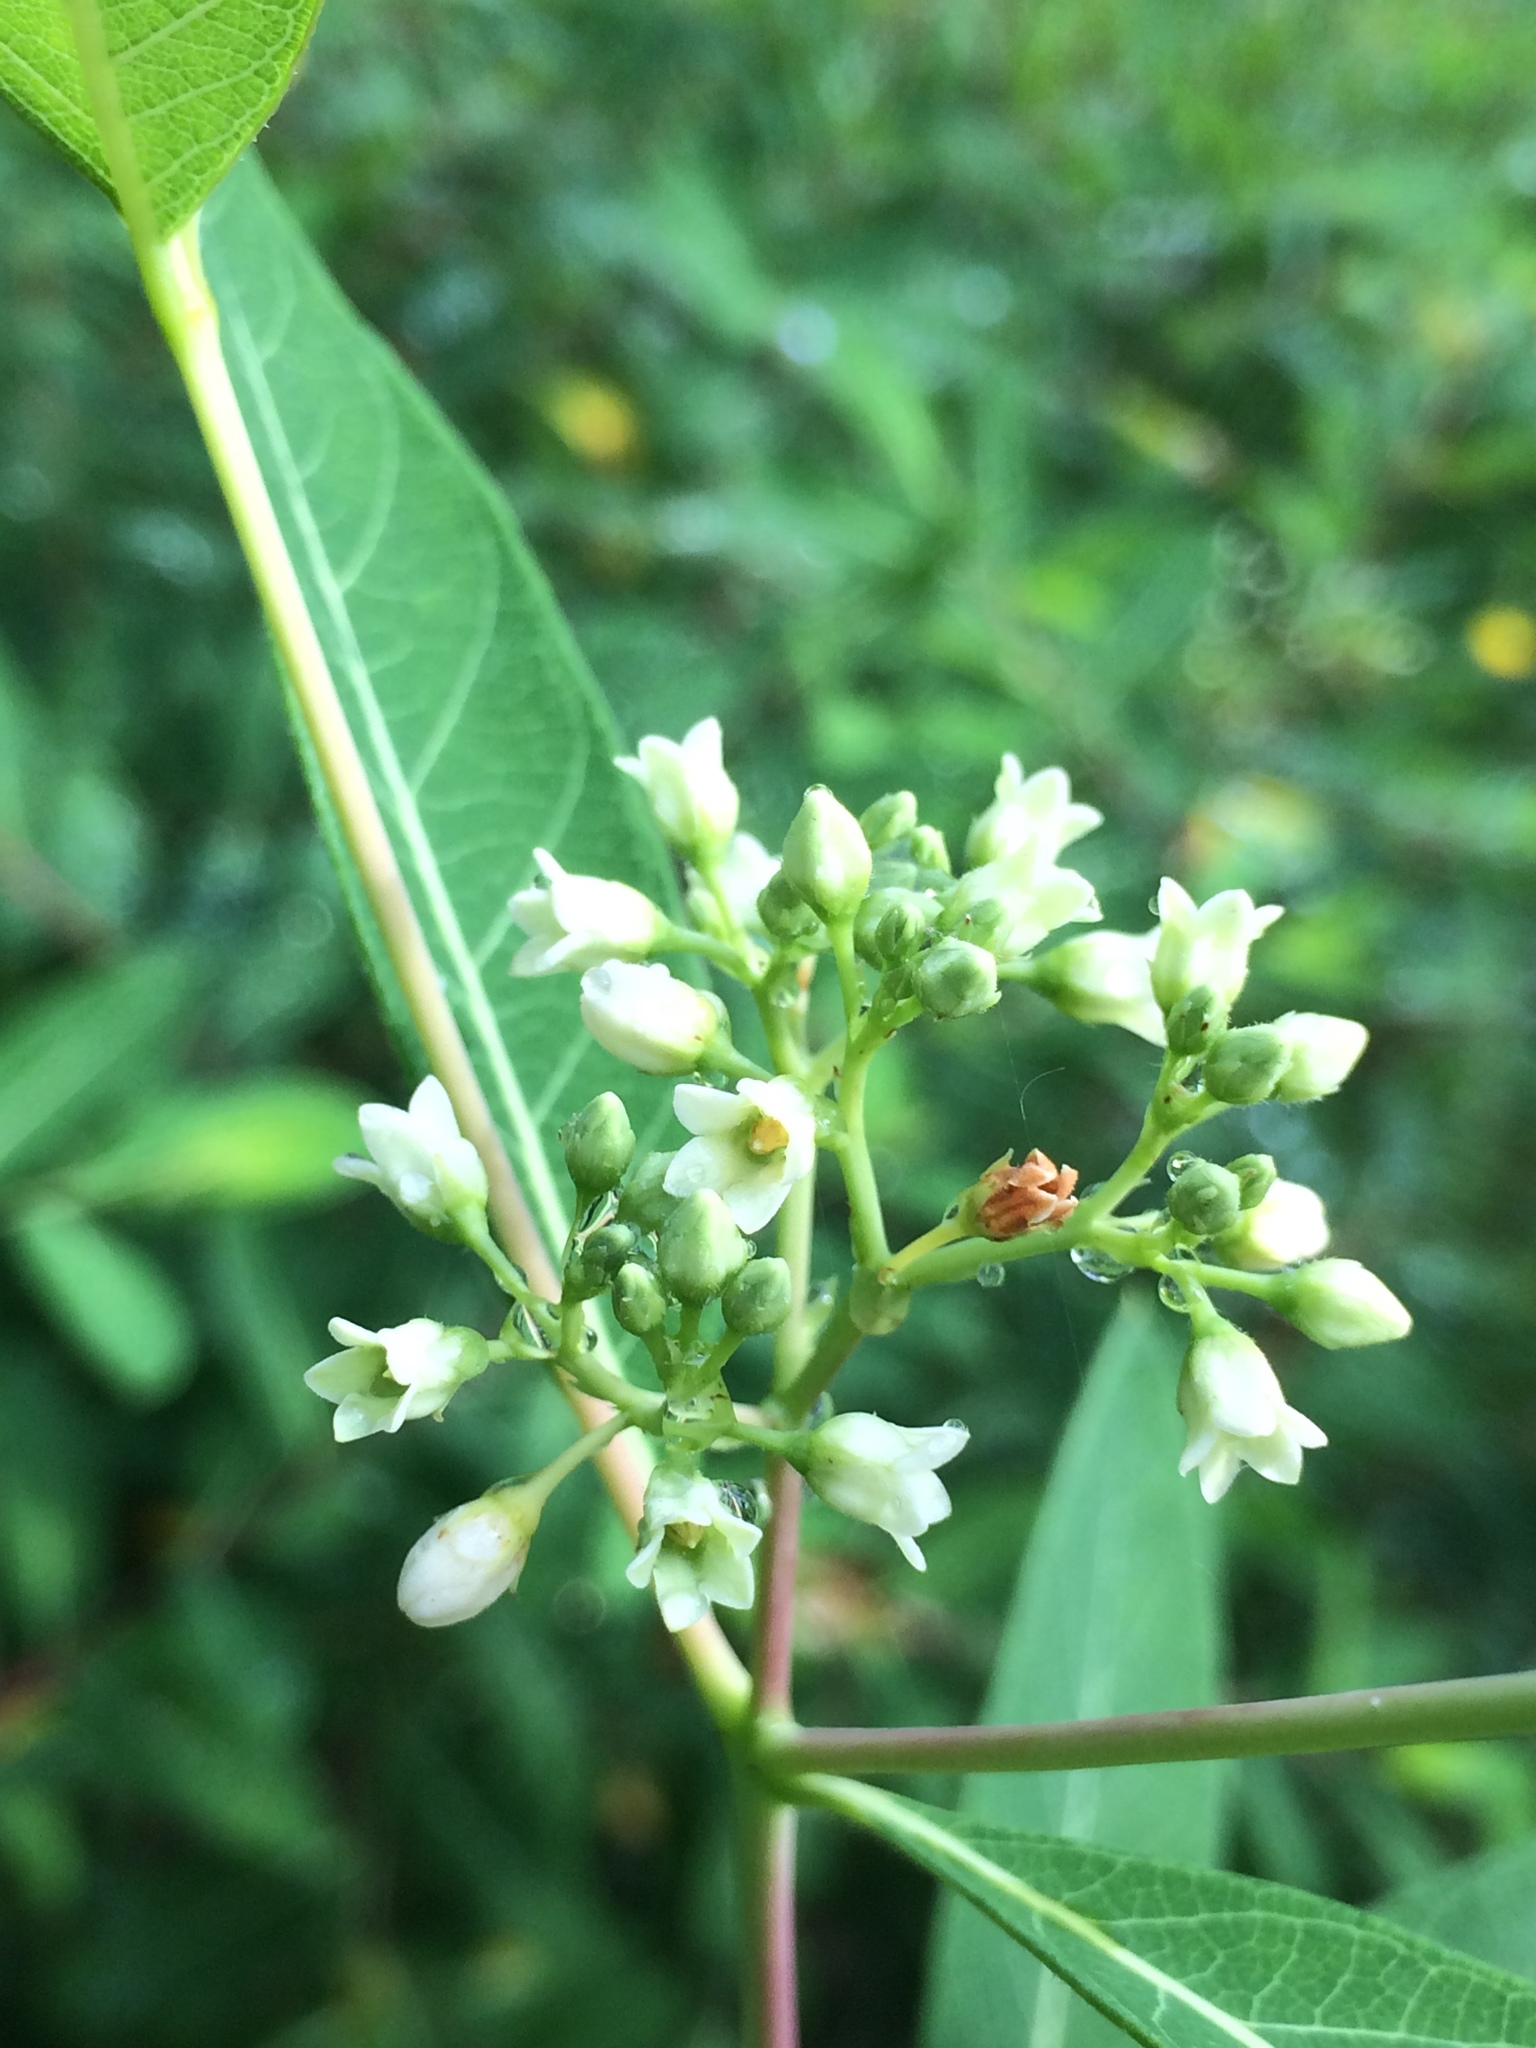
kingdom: Plantae
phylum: Tracheophyta
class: Magnoliopsida
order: Gentianales
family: Apocynaceae
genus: Apocynum
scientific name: Apocynum cannabinum
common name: Hemp dogbane
